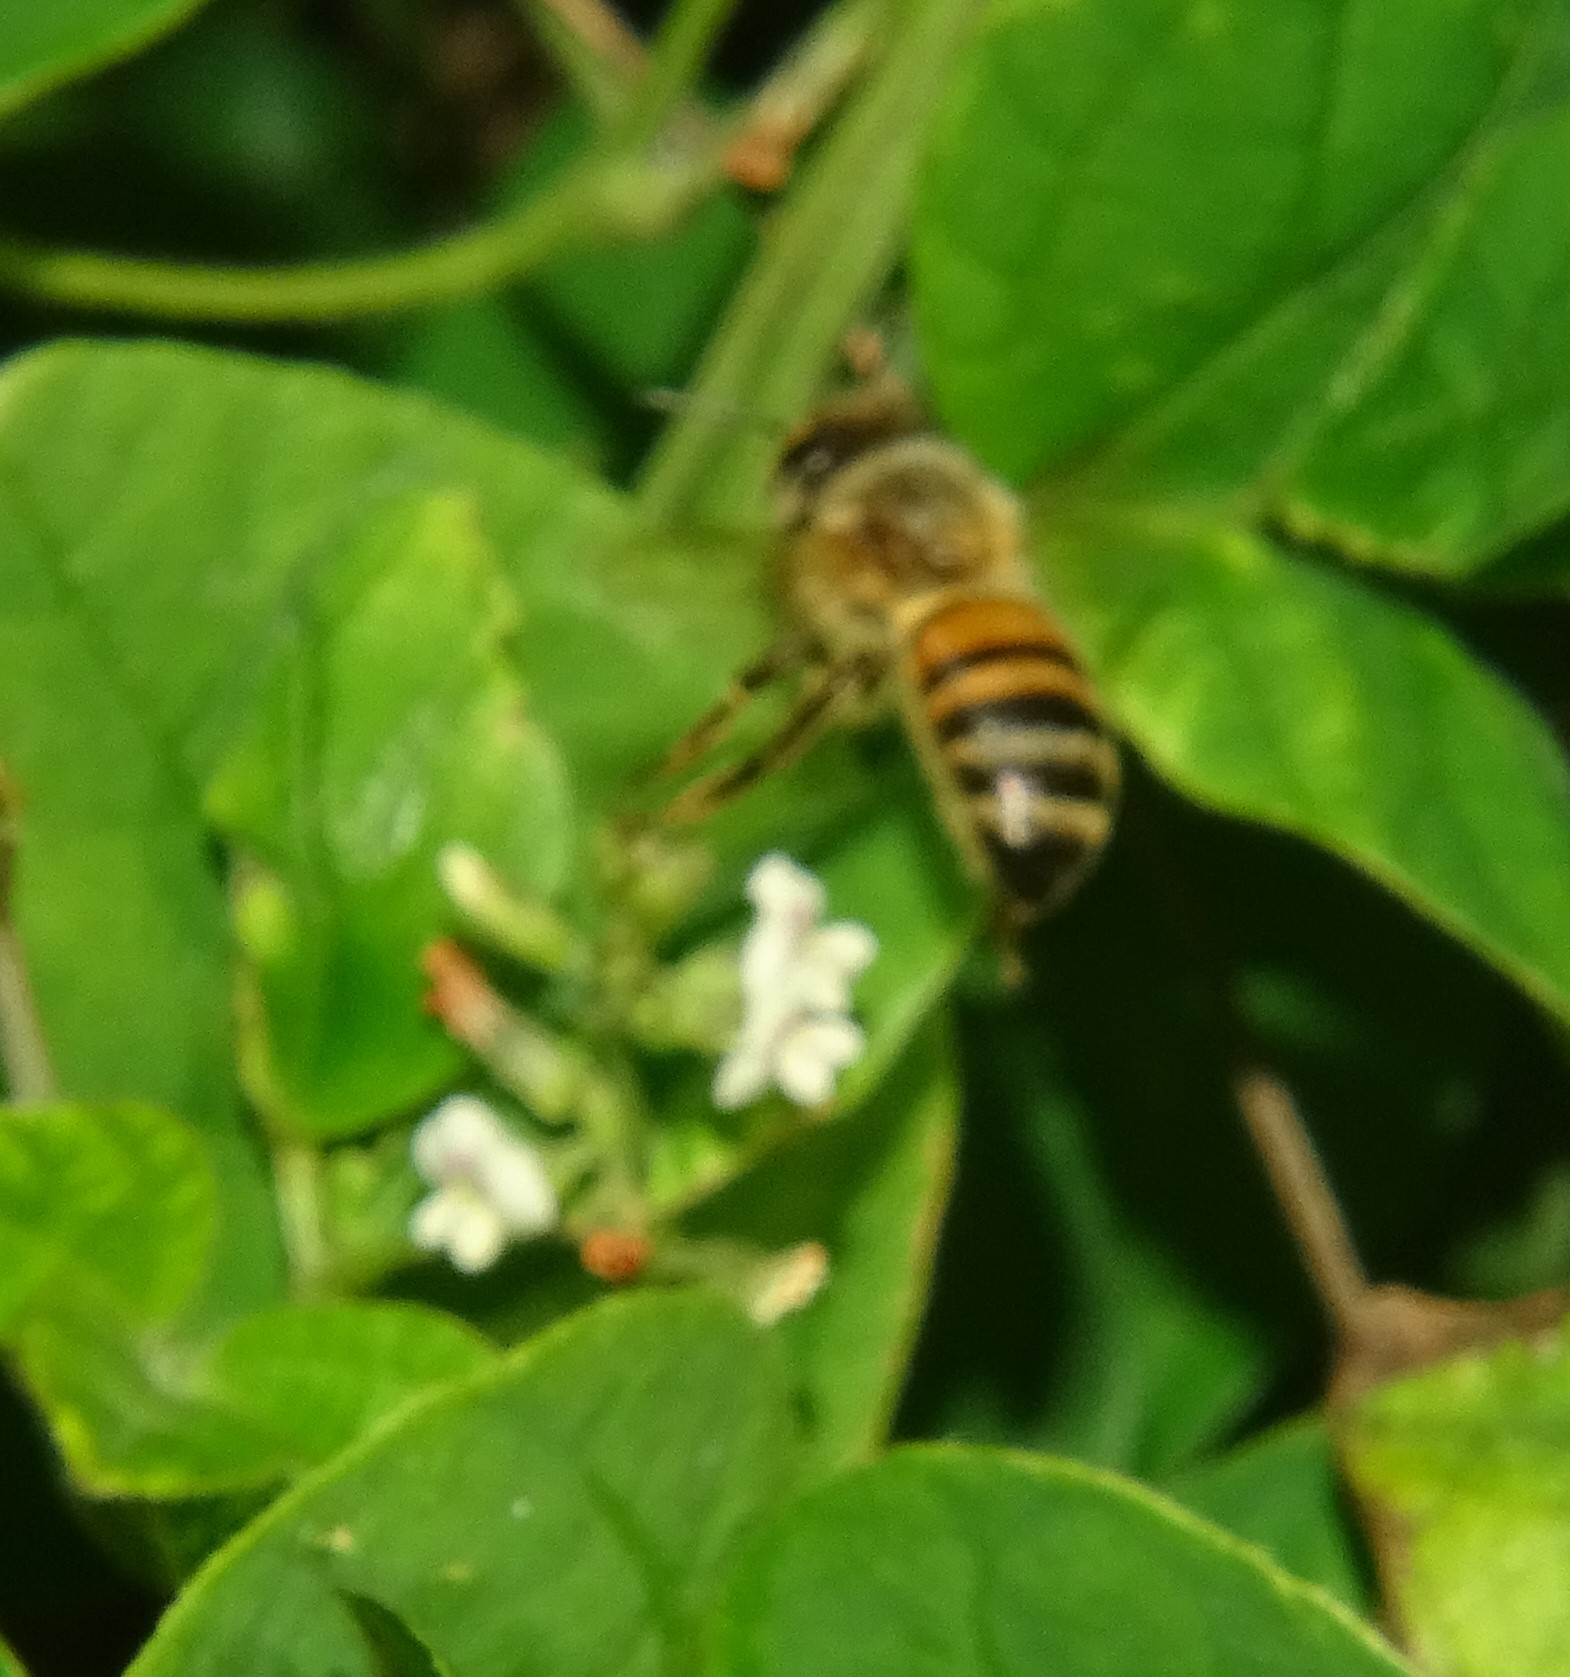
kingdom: Animalia
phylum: Arthropoda
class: Insecta
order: Hymenoptera
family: Apidae
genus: Apis
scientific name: Apis mellifera
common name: Honey bee
